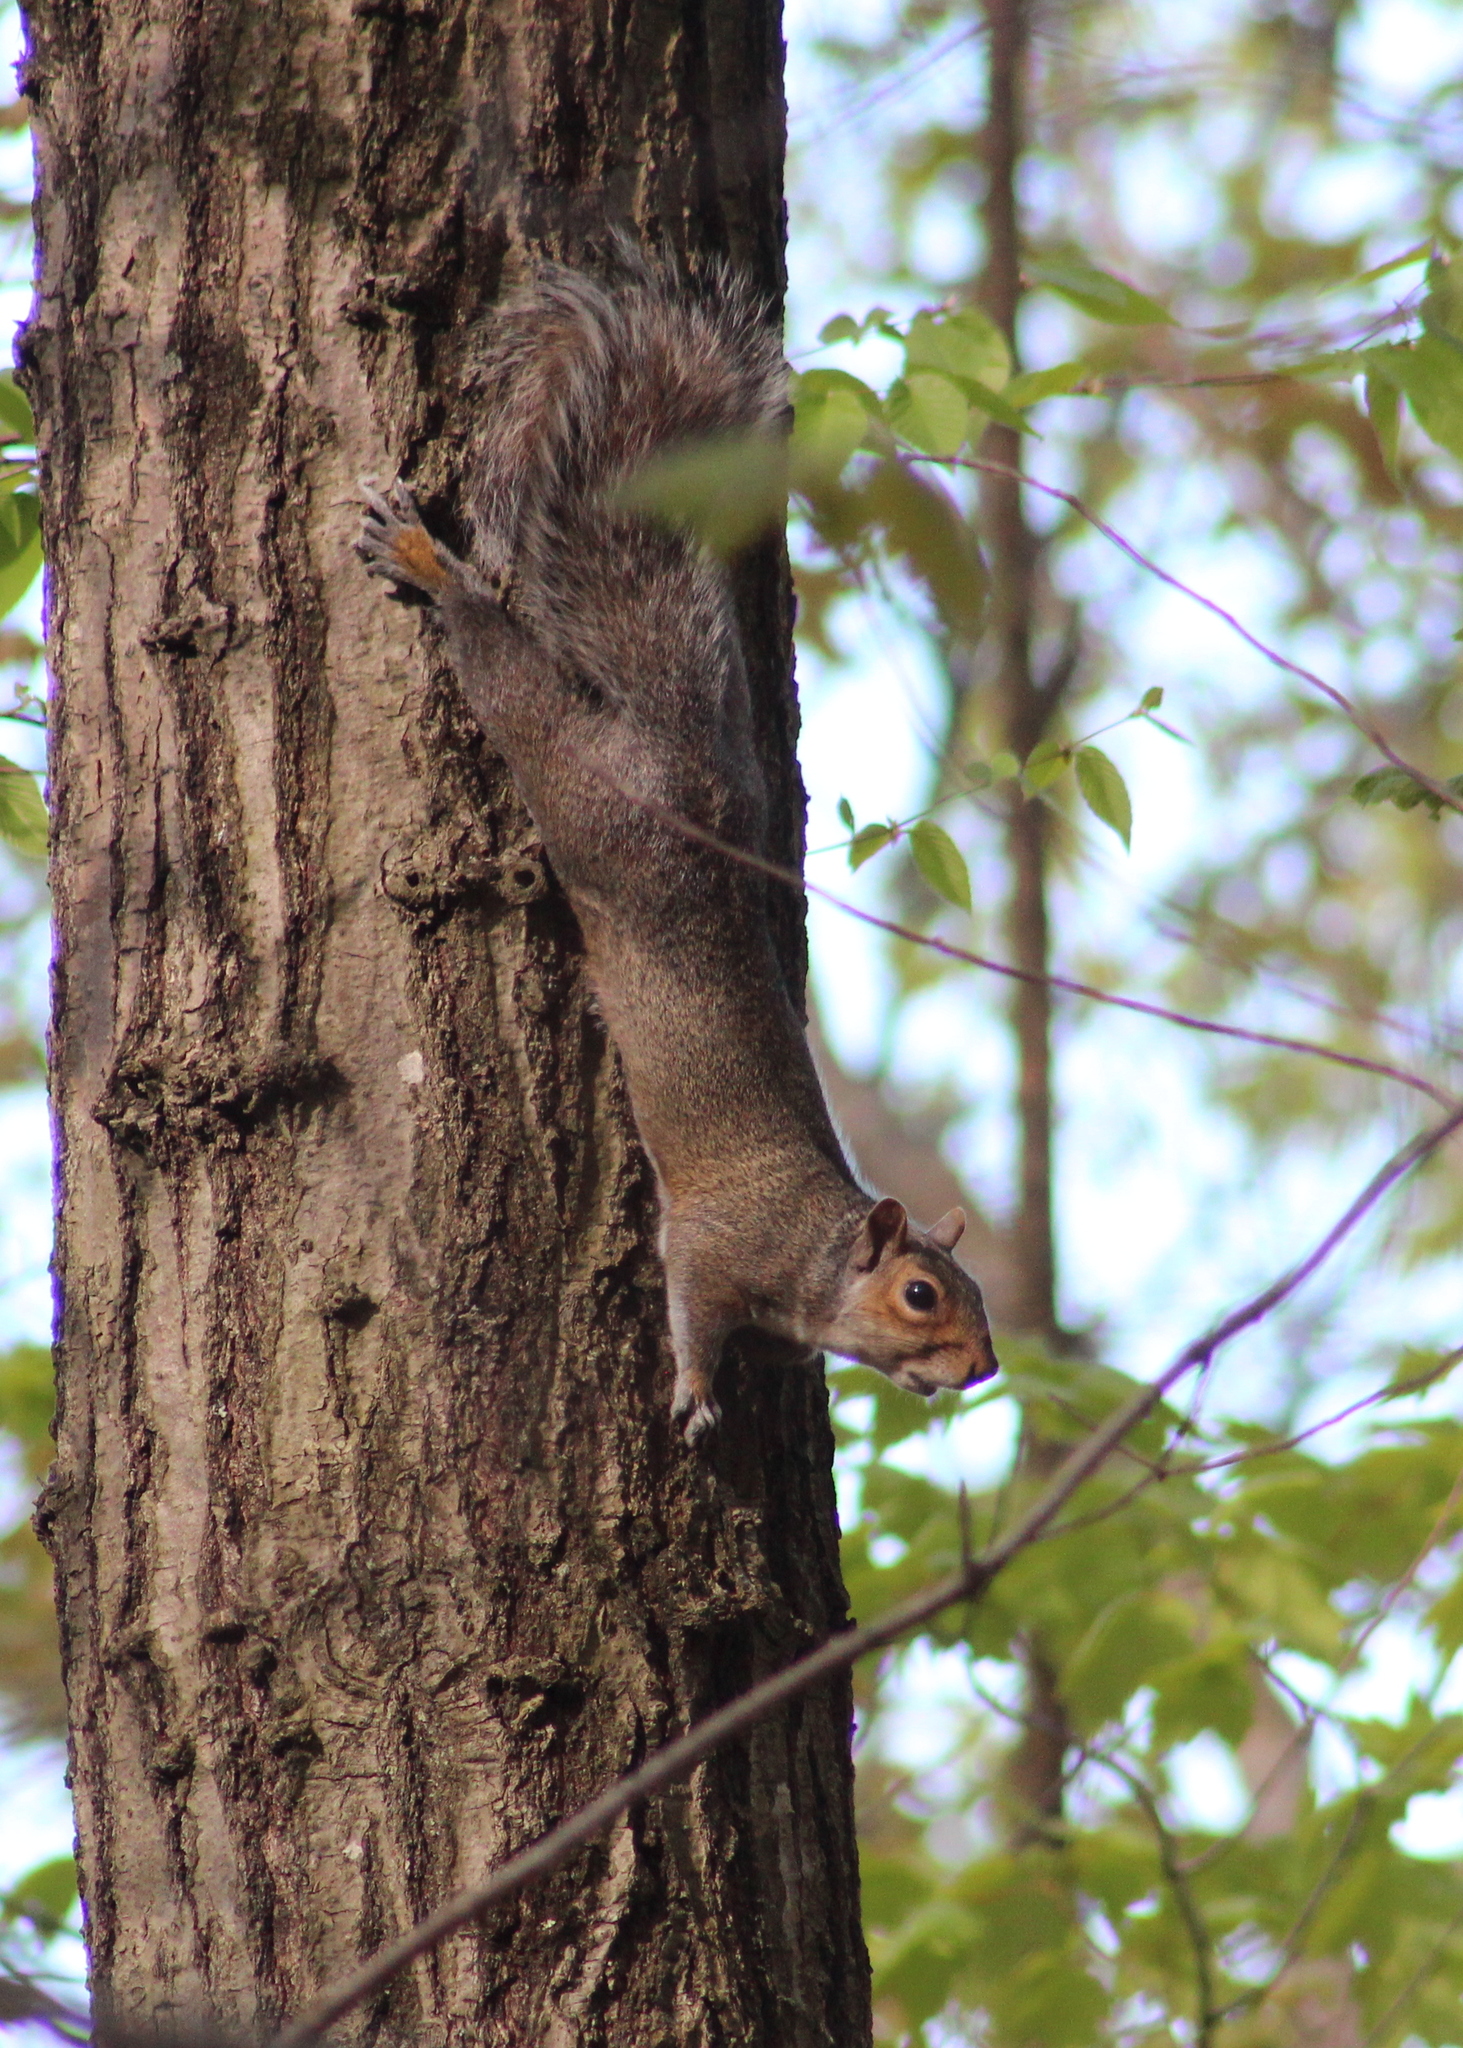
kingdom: Animalia
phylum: Chordata
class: Mammalia
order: Rodentia
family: Sciuridae
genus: Sciurus
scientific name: Sciurus carolinensis
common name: Eastern gray squirrel
